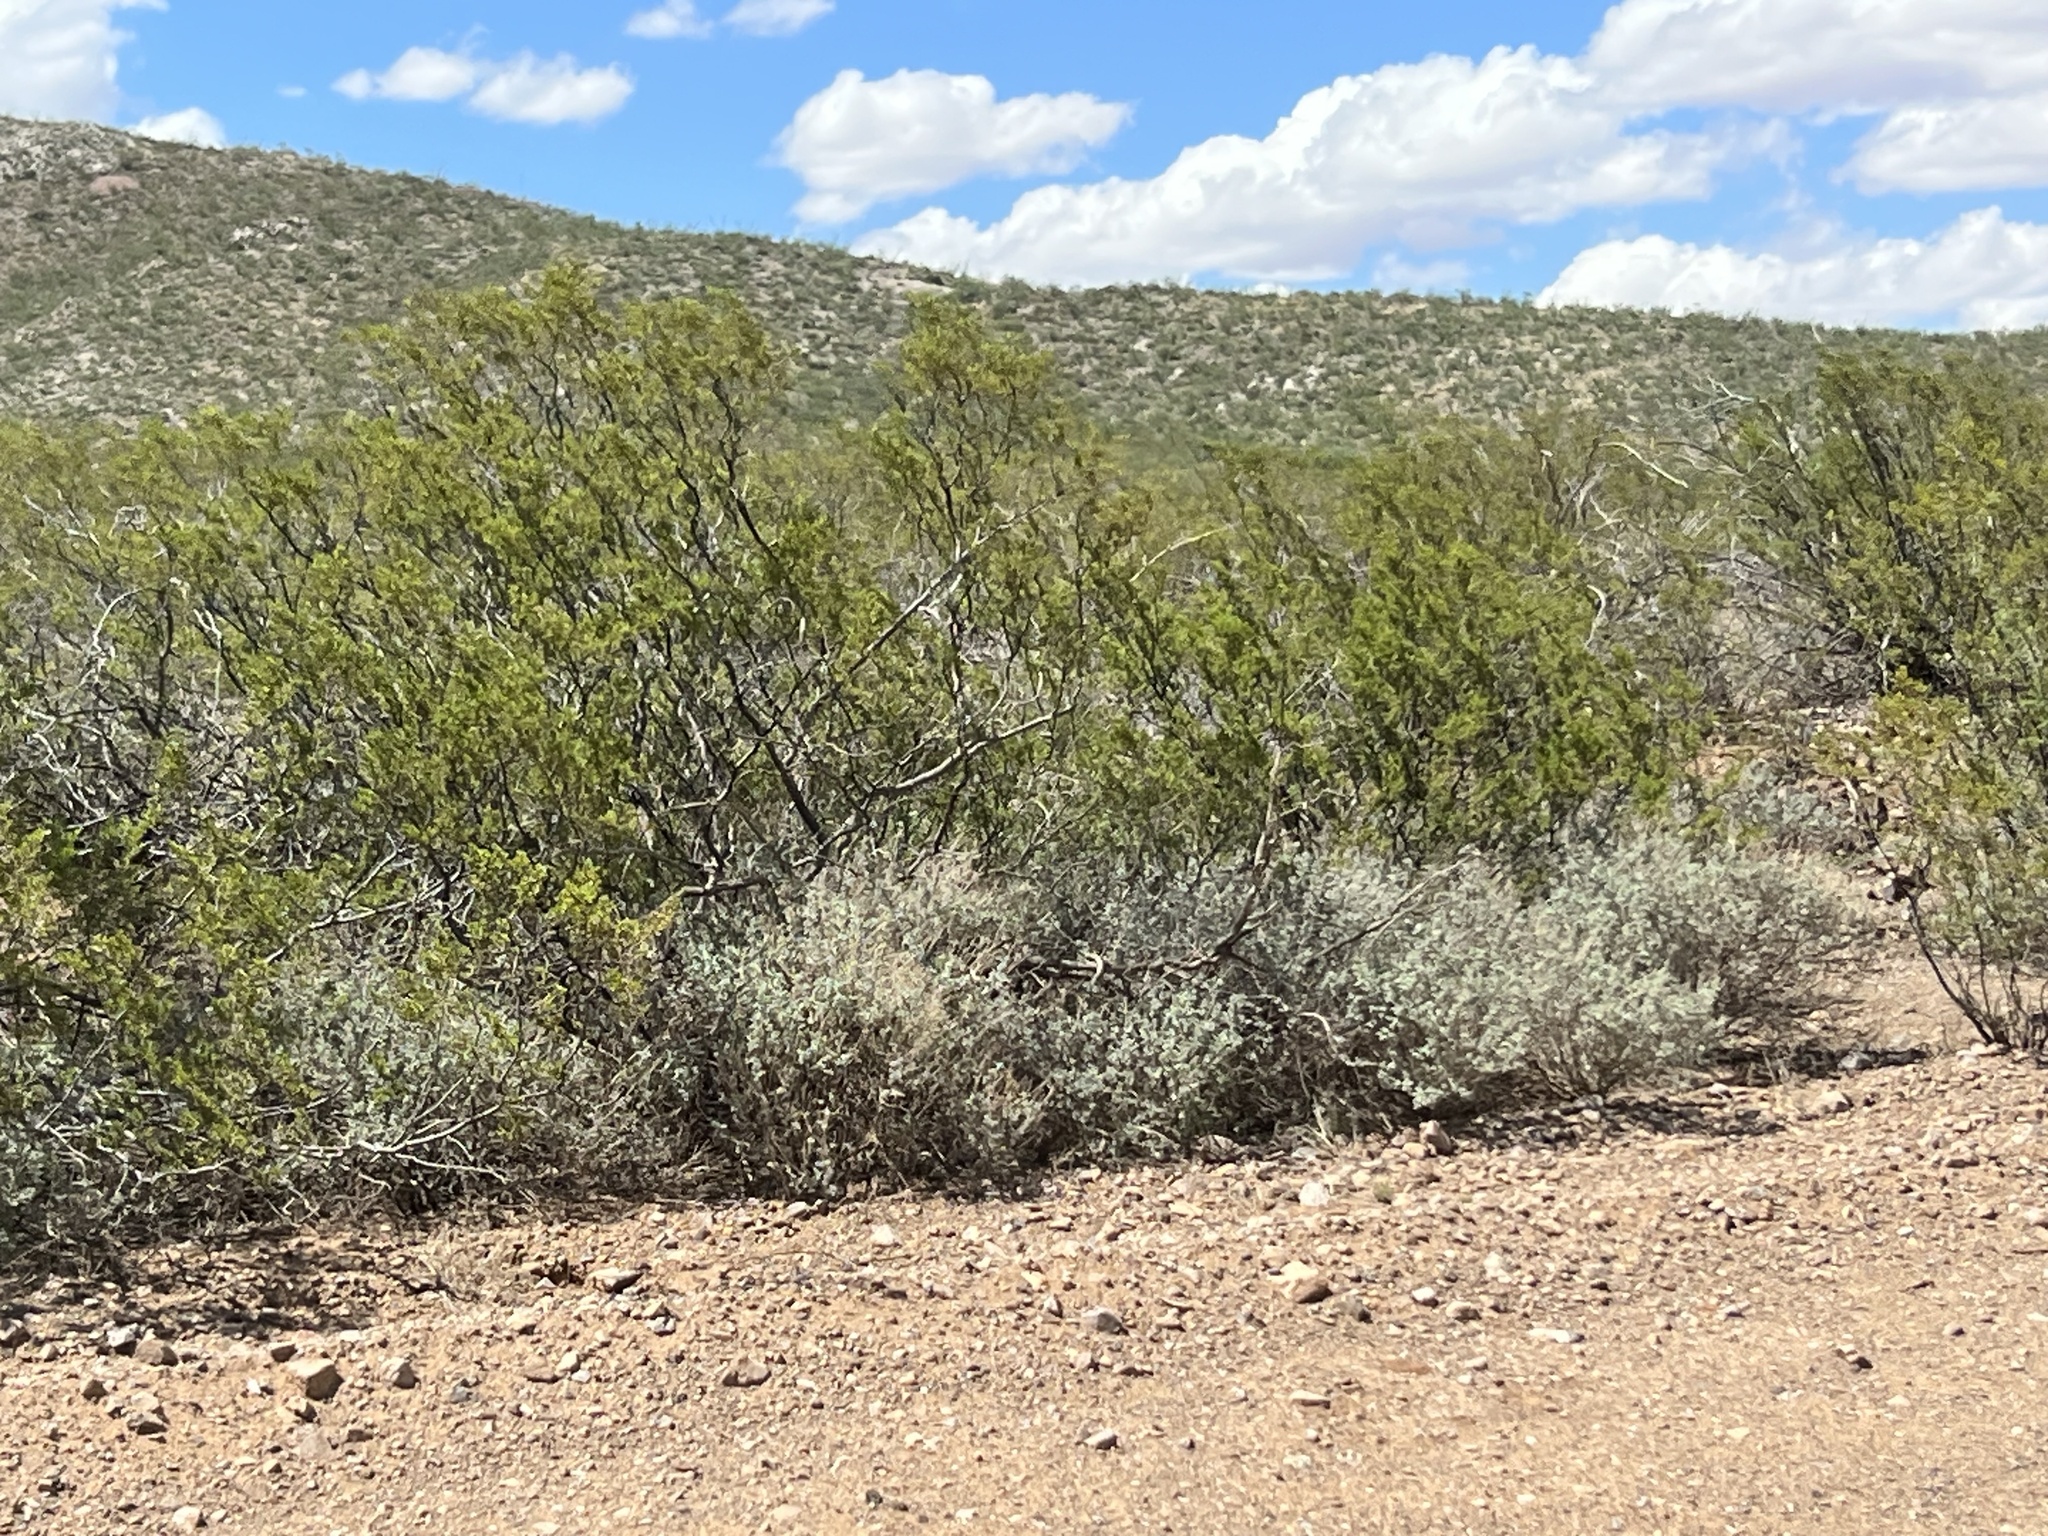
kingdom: Plantae
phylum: Tracheophyta
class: Magnoliopsida
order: Zygophyllales
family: Zygophyllaceae
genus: Larrea
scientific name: Larrea tridentata
